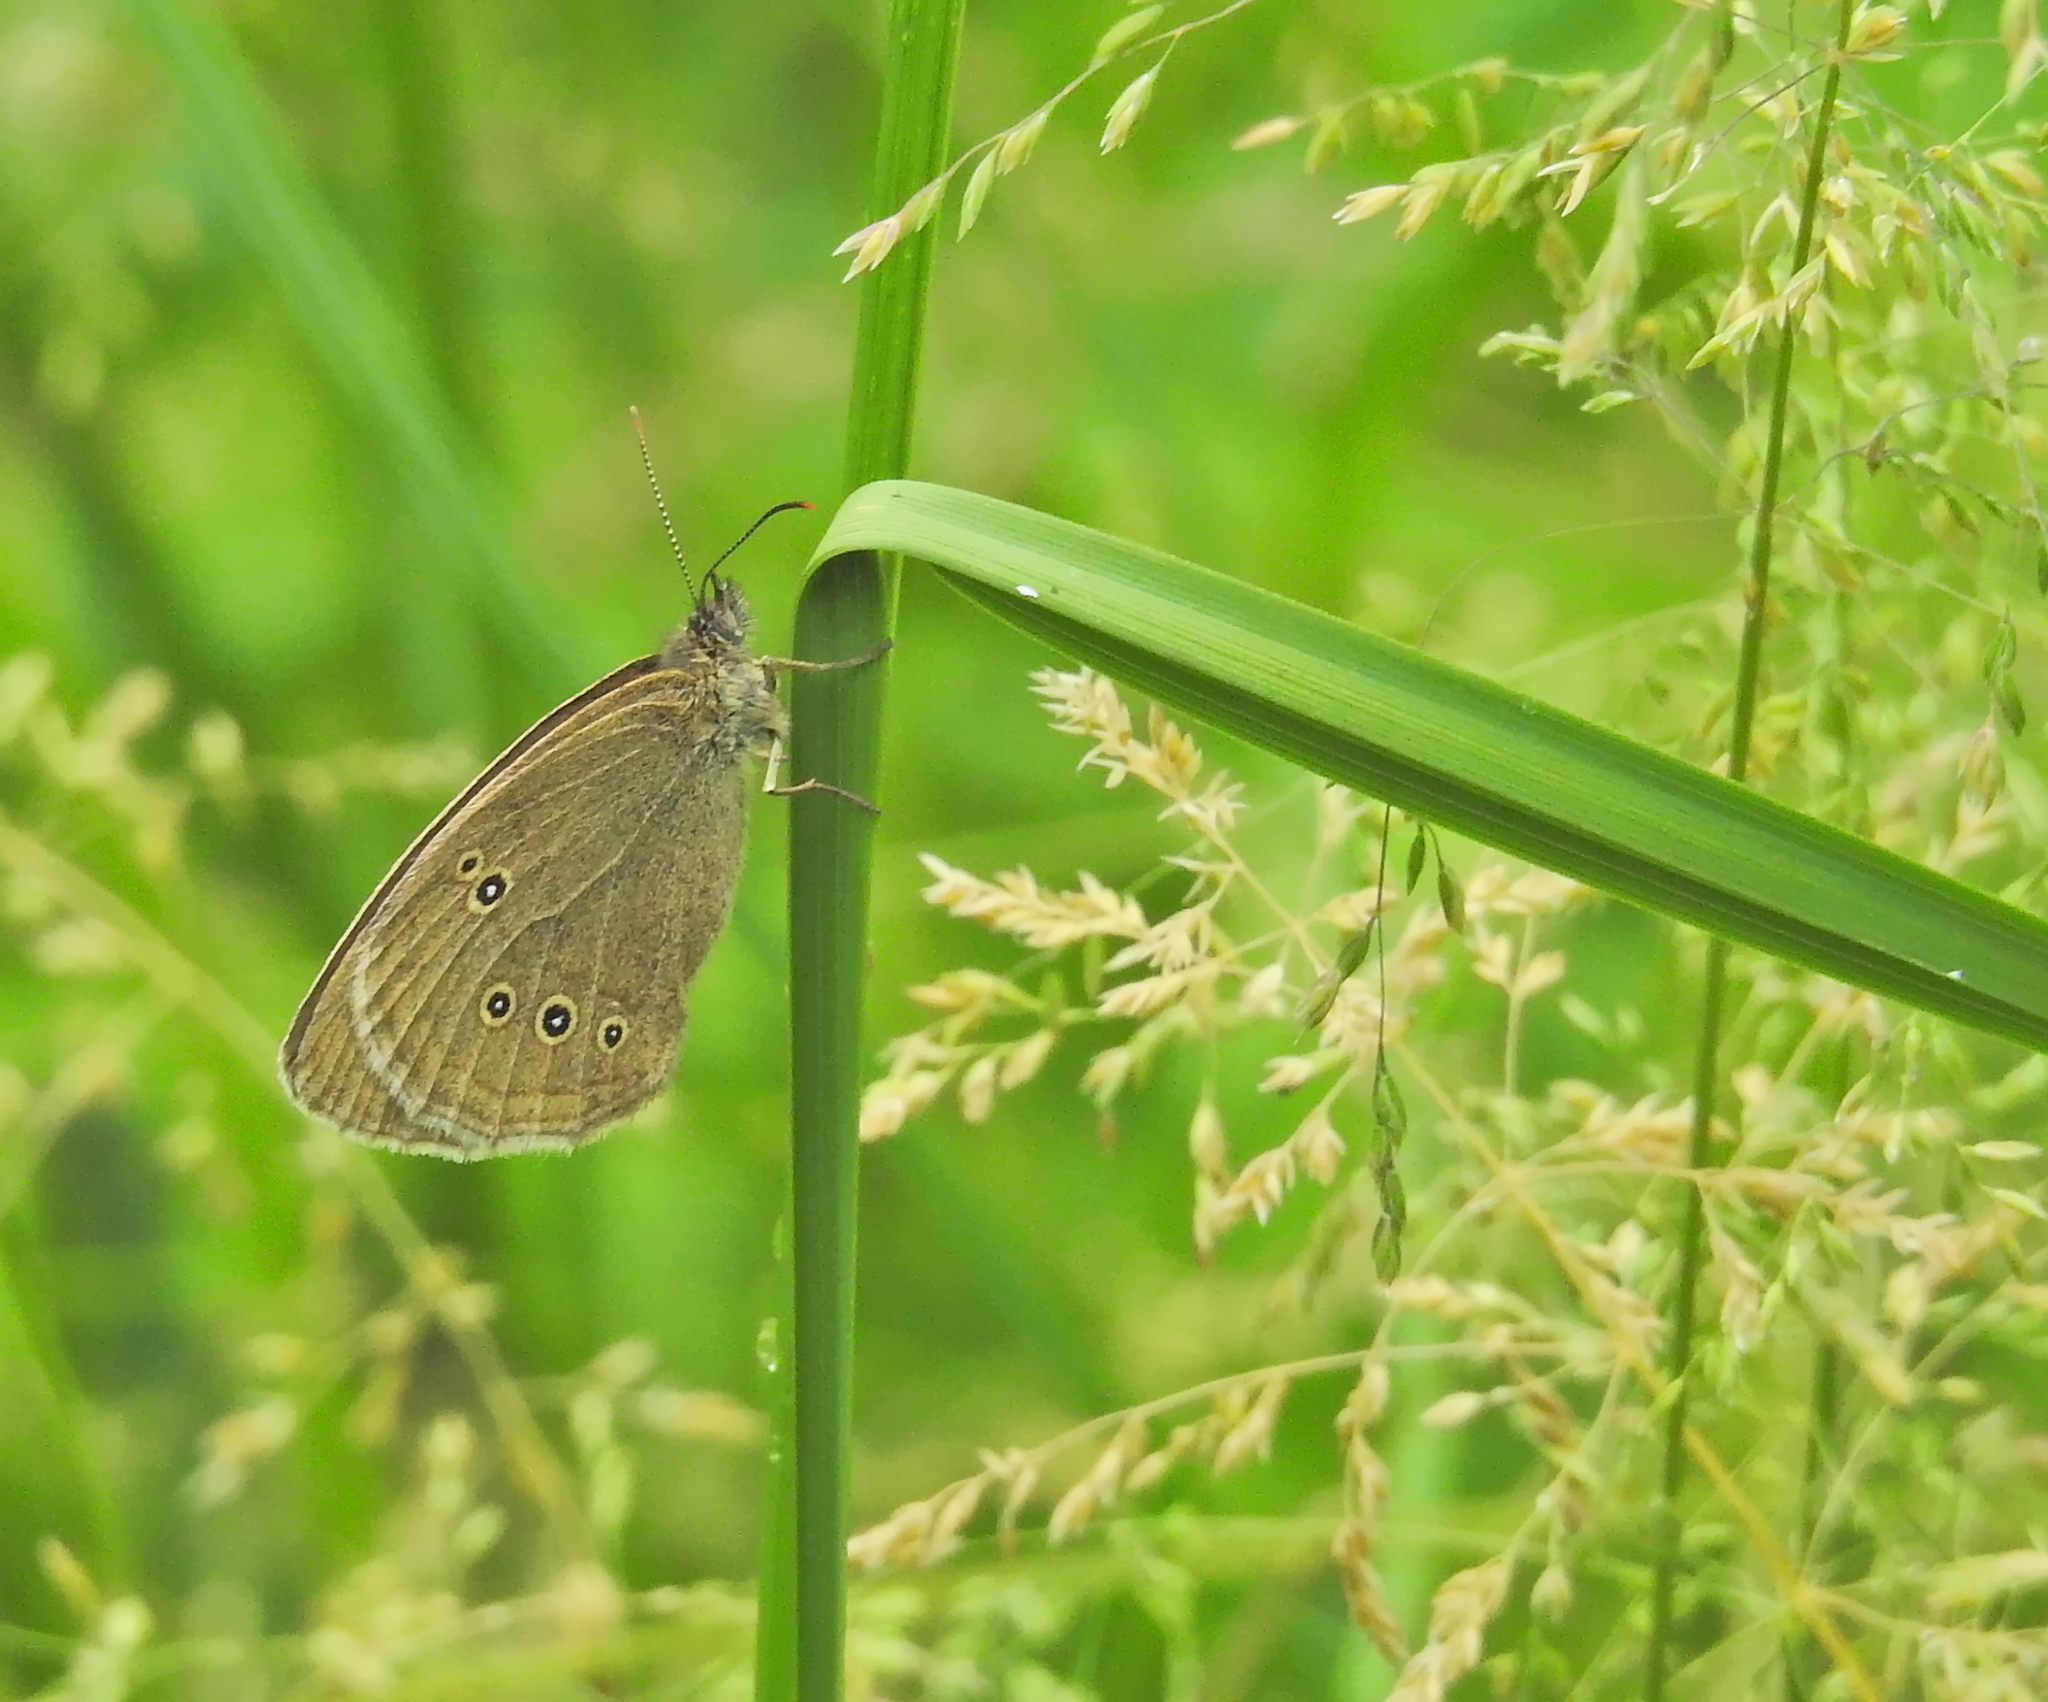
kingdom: Animalia
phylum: Arthropoda
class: Insecta
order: Lepidoptera
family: Nymphalidae
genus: Aphantopus
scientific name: Aphantopus hyperantus
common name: Ringlet
